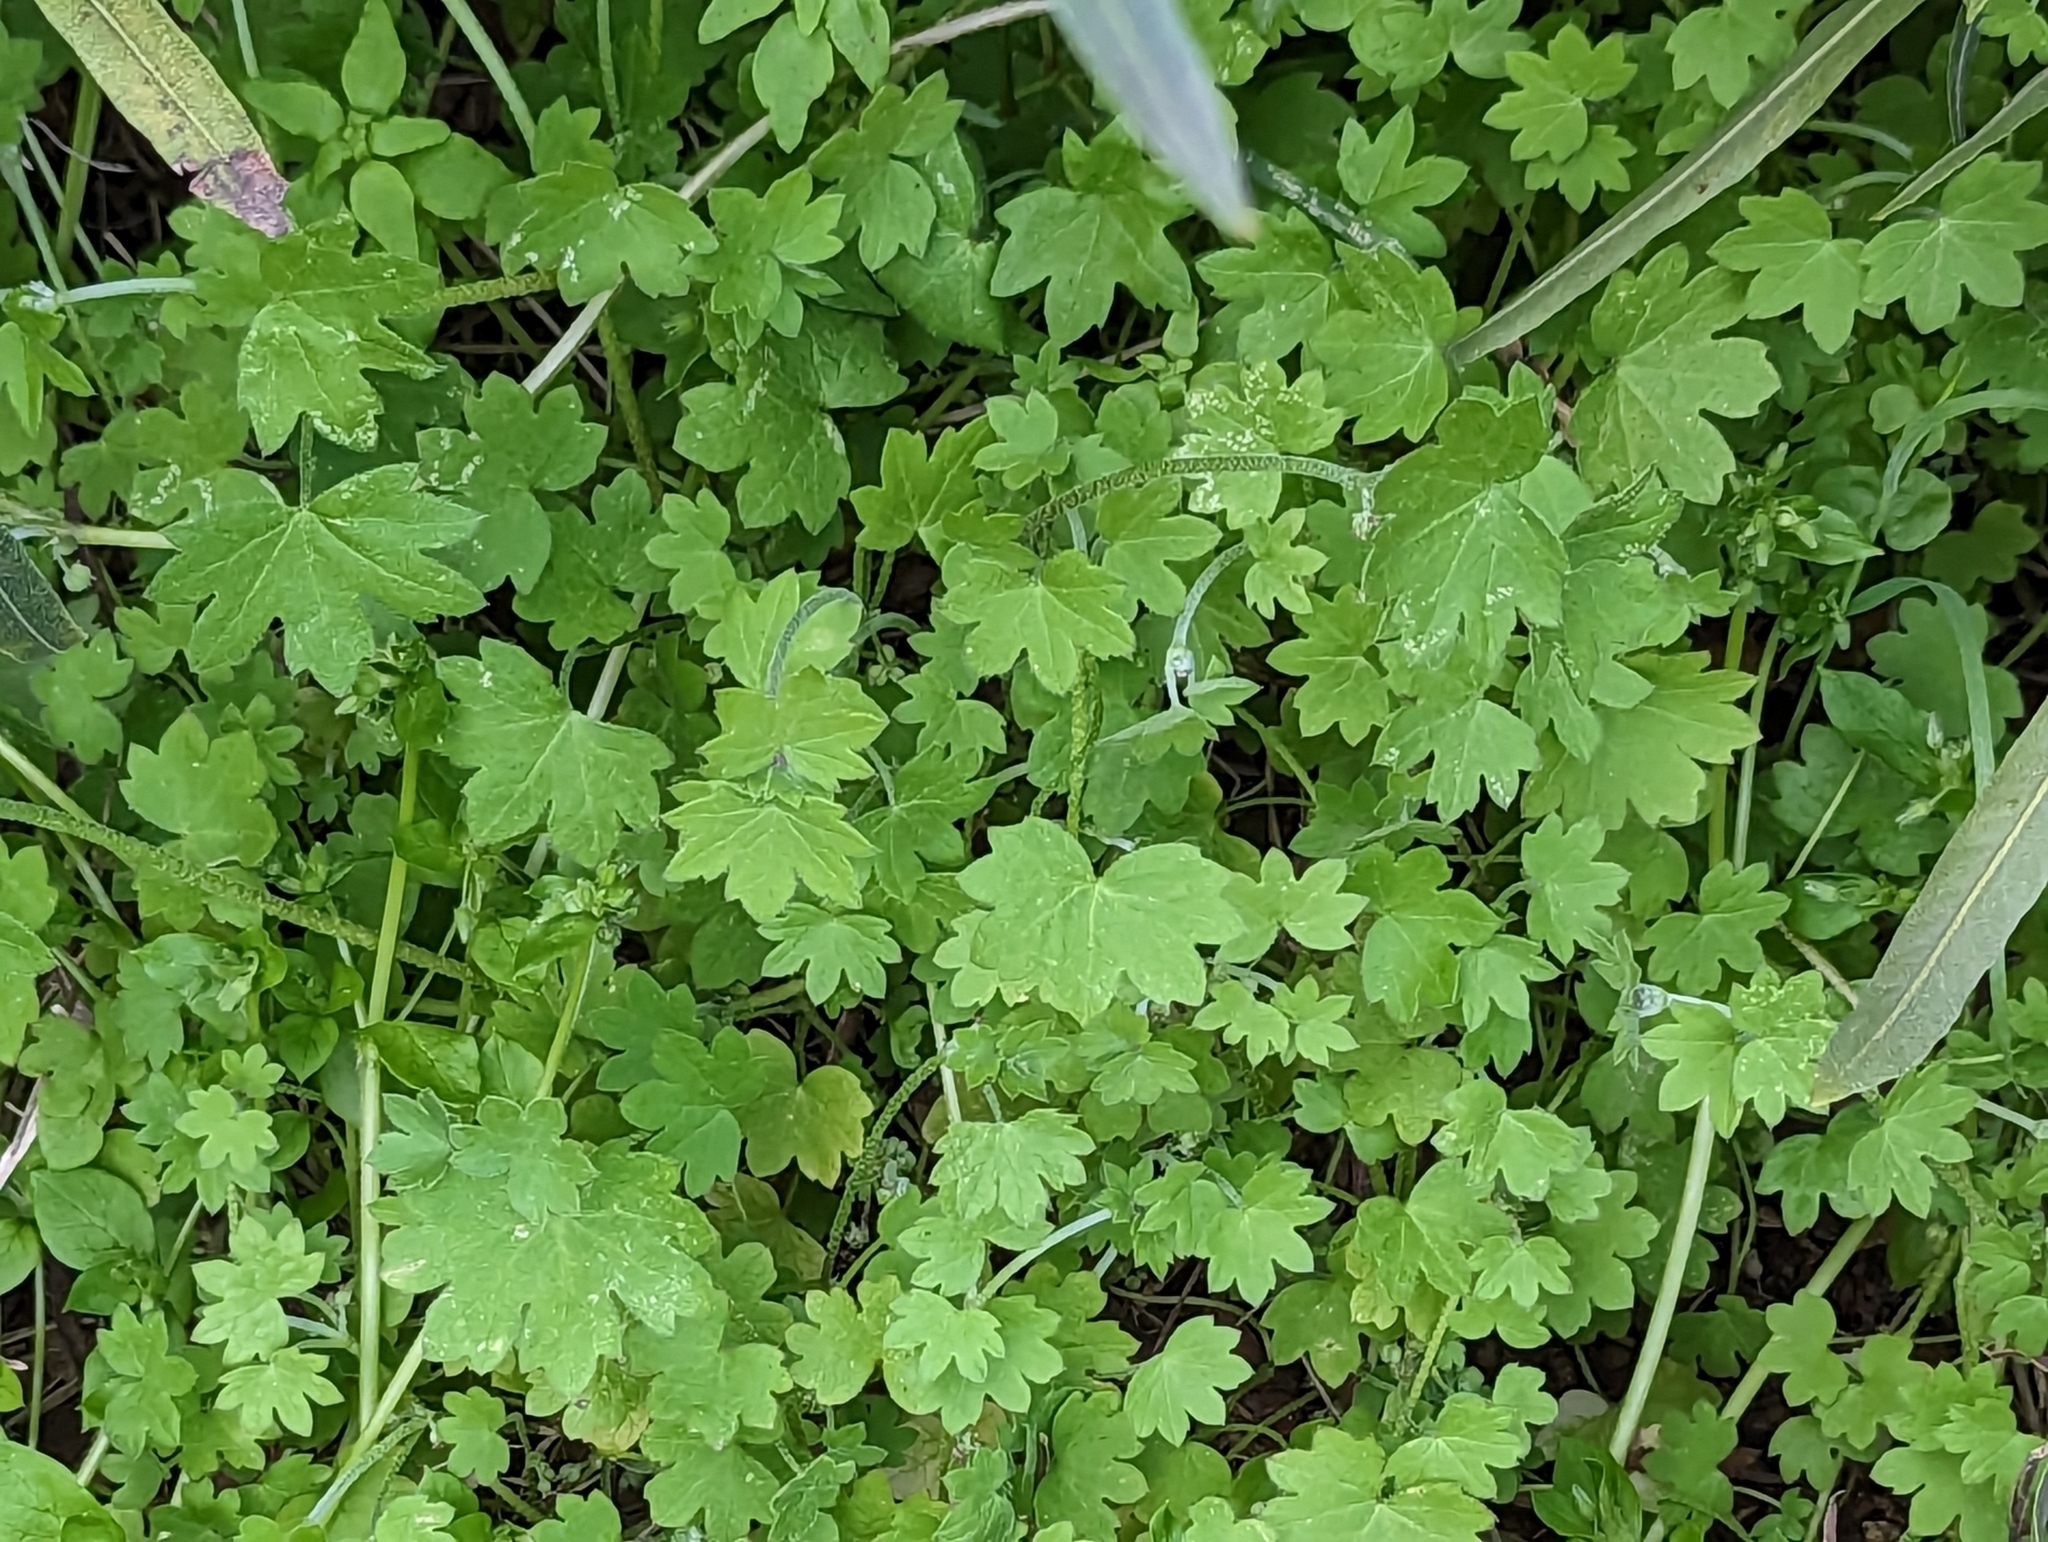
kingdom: Plantae
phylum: Tracheophyta
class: Magnoliopsida
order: Apiales
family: Apiaceae
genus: Bowlesia
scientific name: Bowlesia incana
